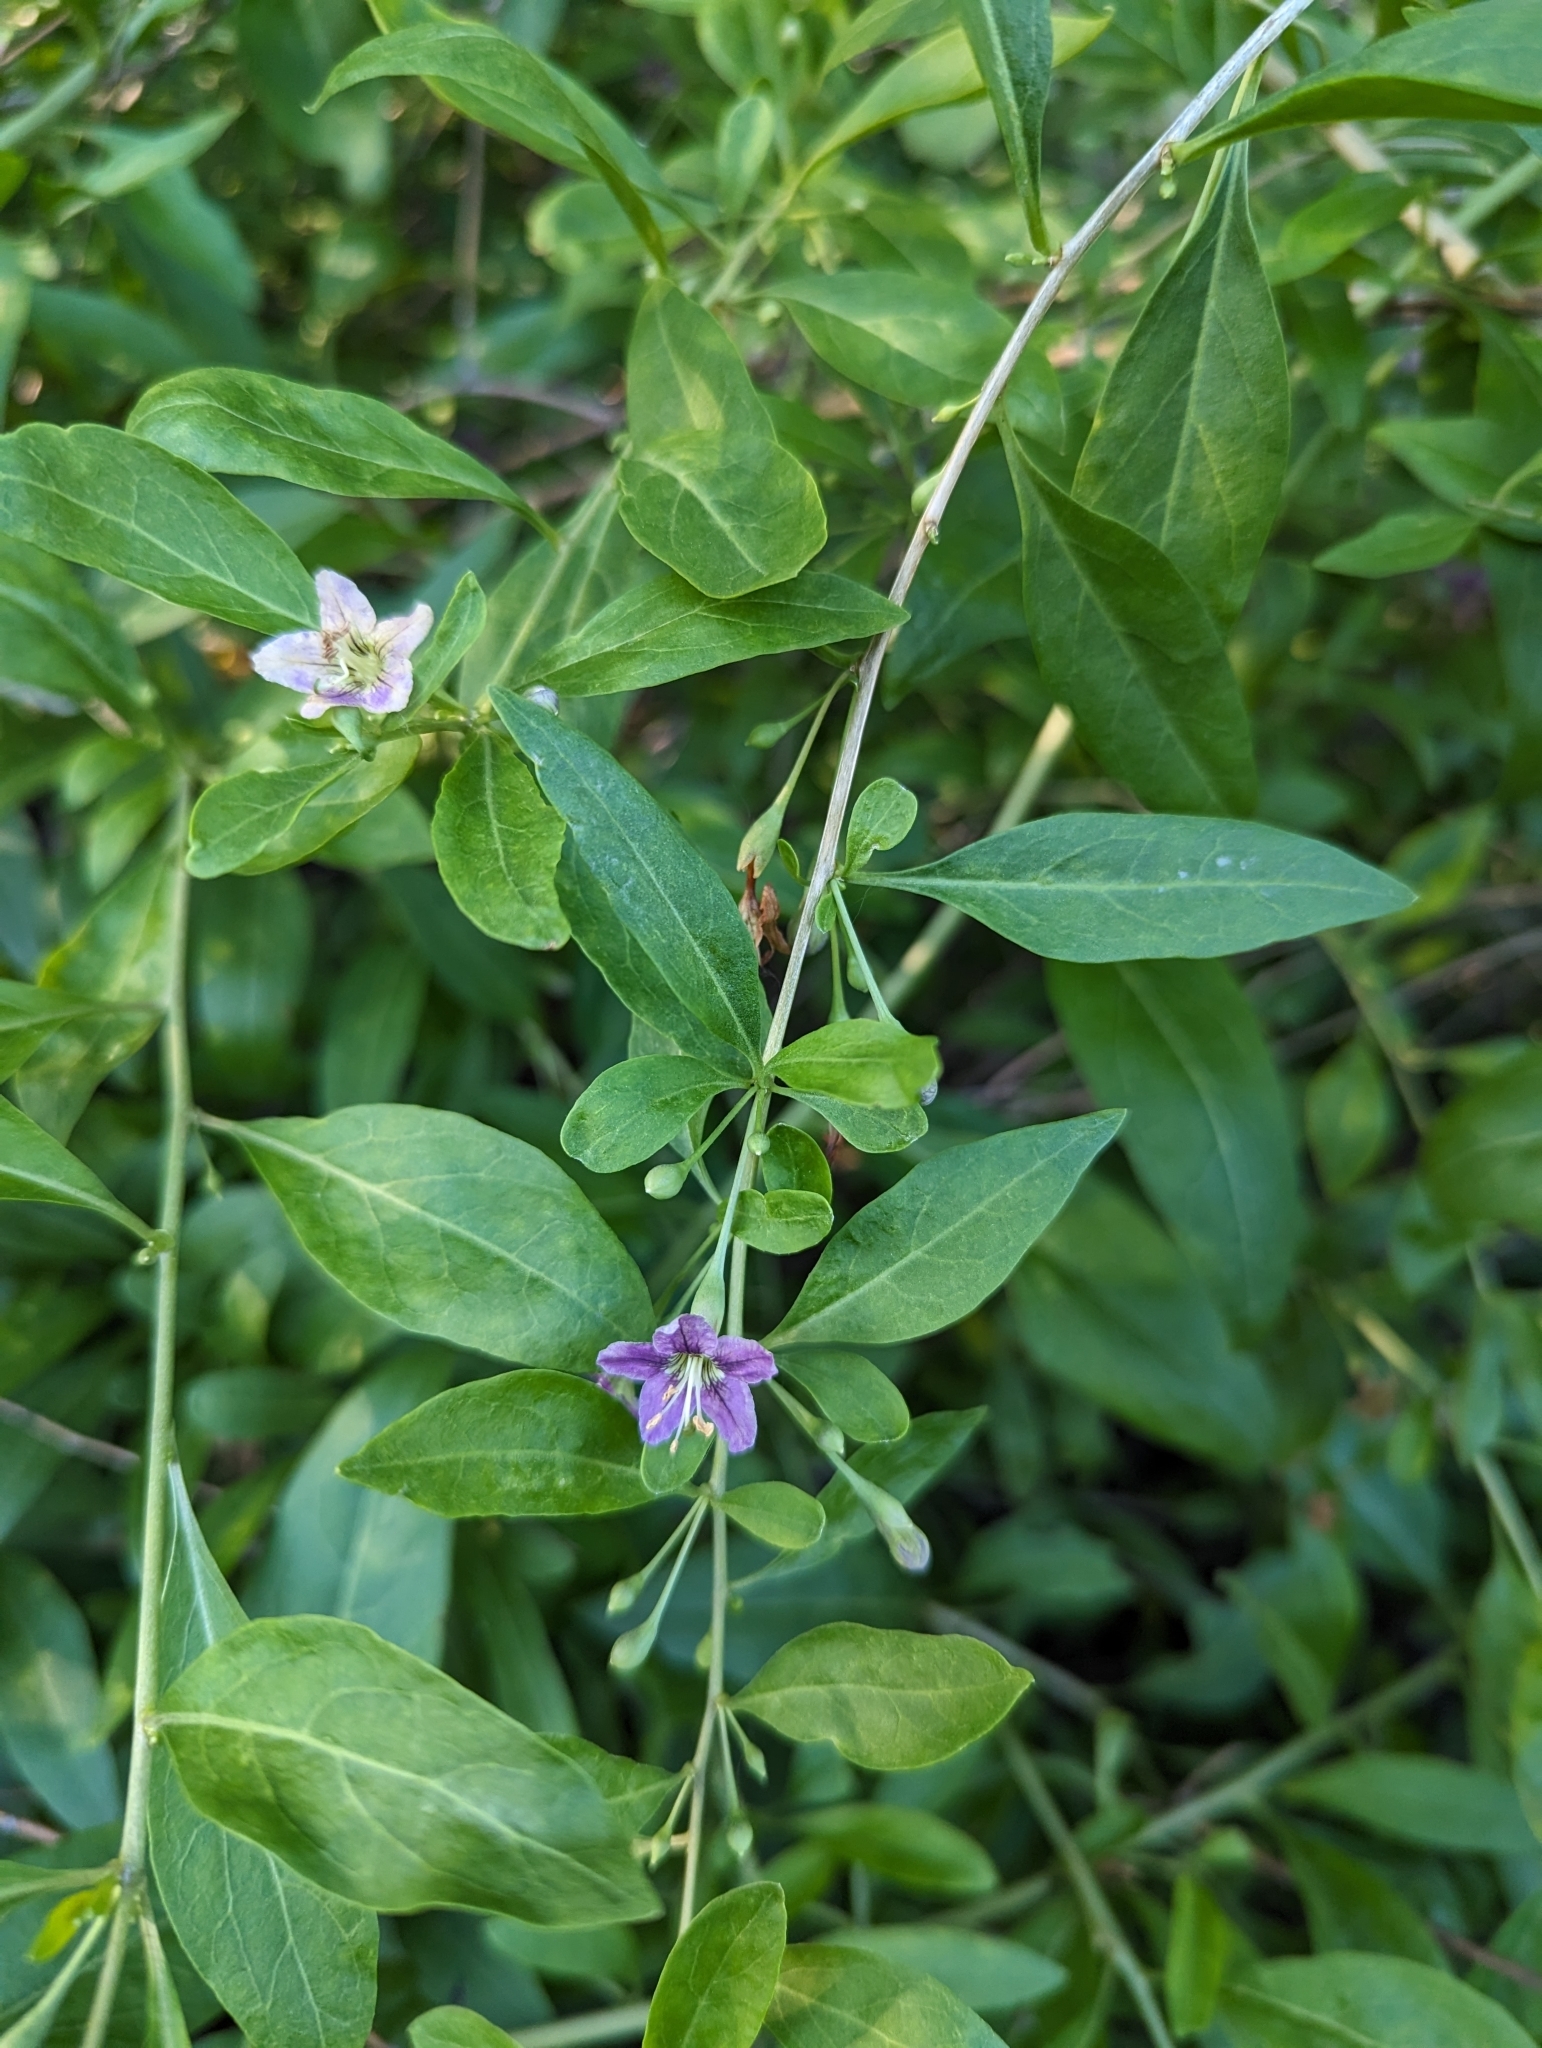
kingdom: Plantae
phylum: Tracheophyta
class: Magnoliopsida
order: Solanales
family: Solanaceae
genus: Lycium
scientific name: Lycium barbarum
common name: Duke of argyll's teaplant
